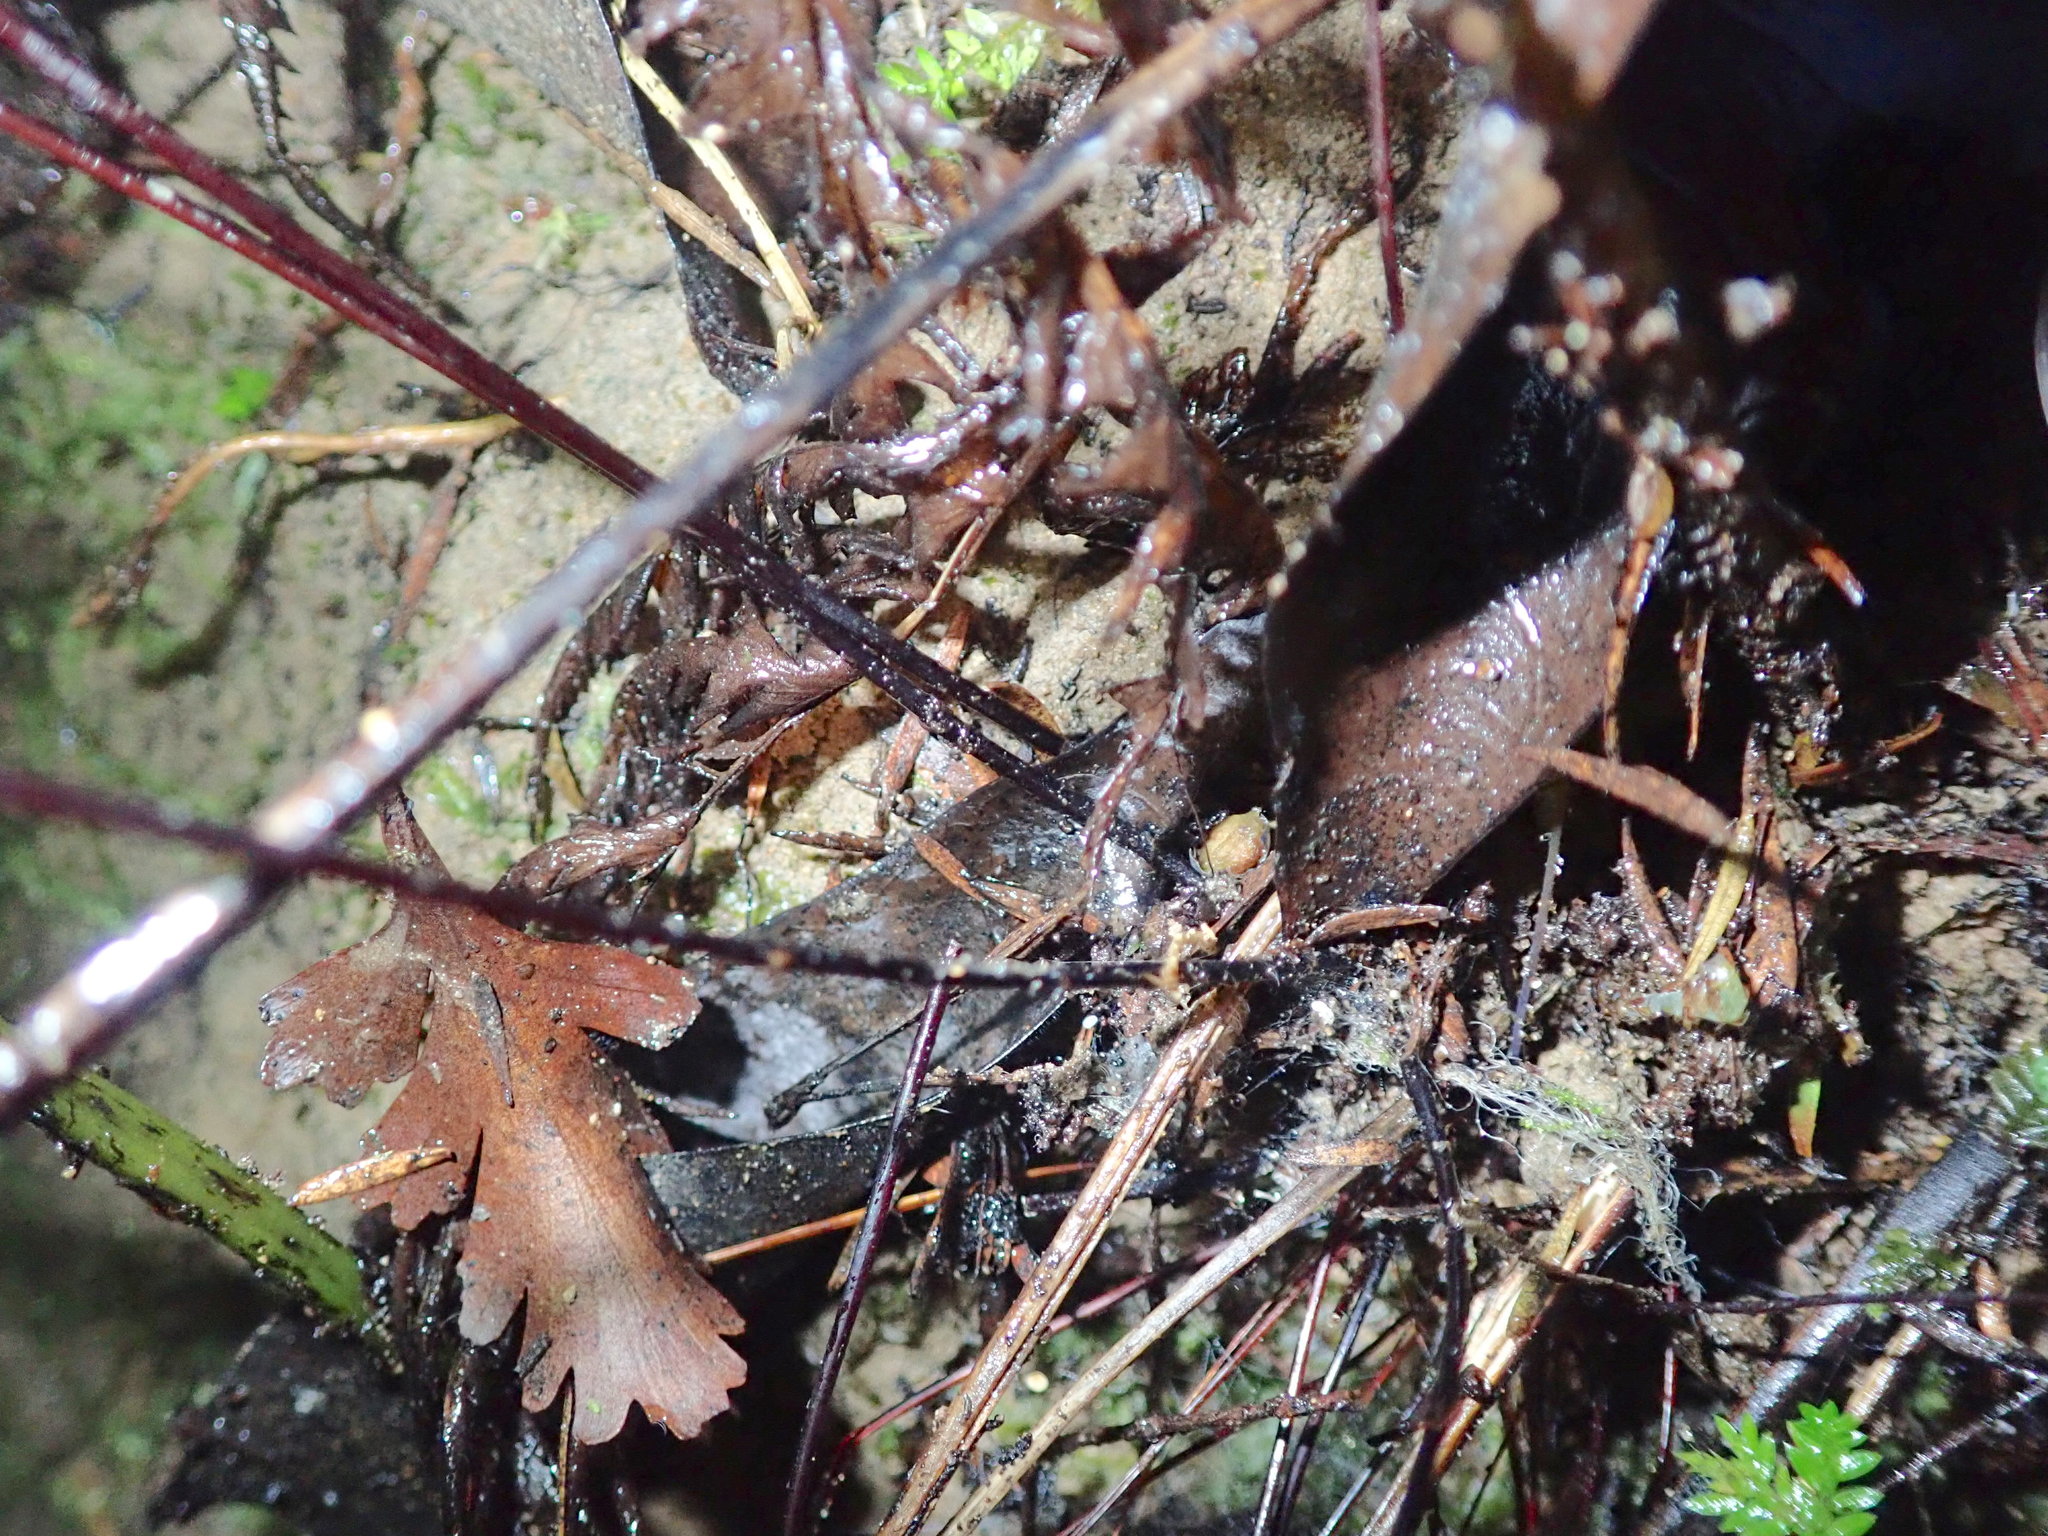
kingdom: Plantae
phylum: Tracheophyta
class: Polypodiopsida
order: Polypodiales
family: Pteridaceae
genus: Adiantum
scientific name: Adiantum raddianum
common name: Delta maidenhair fern
